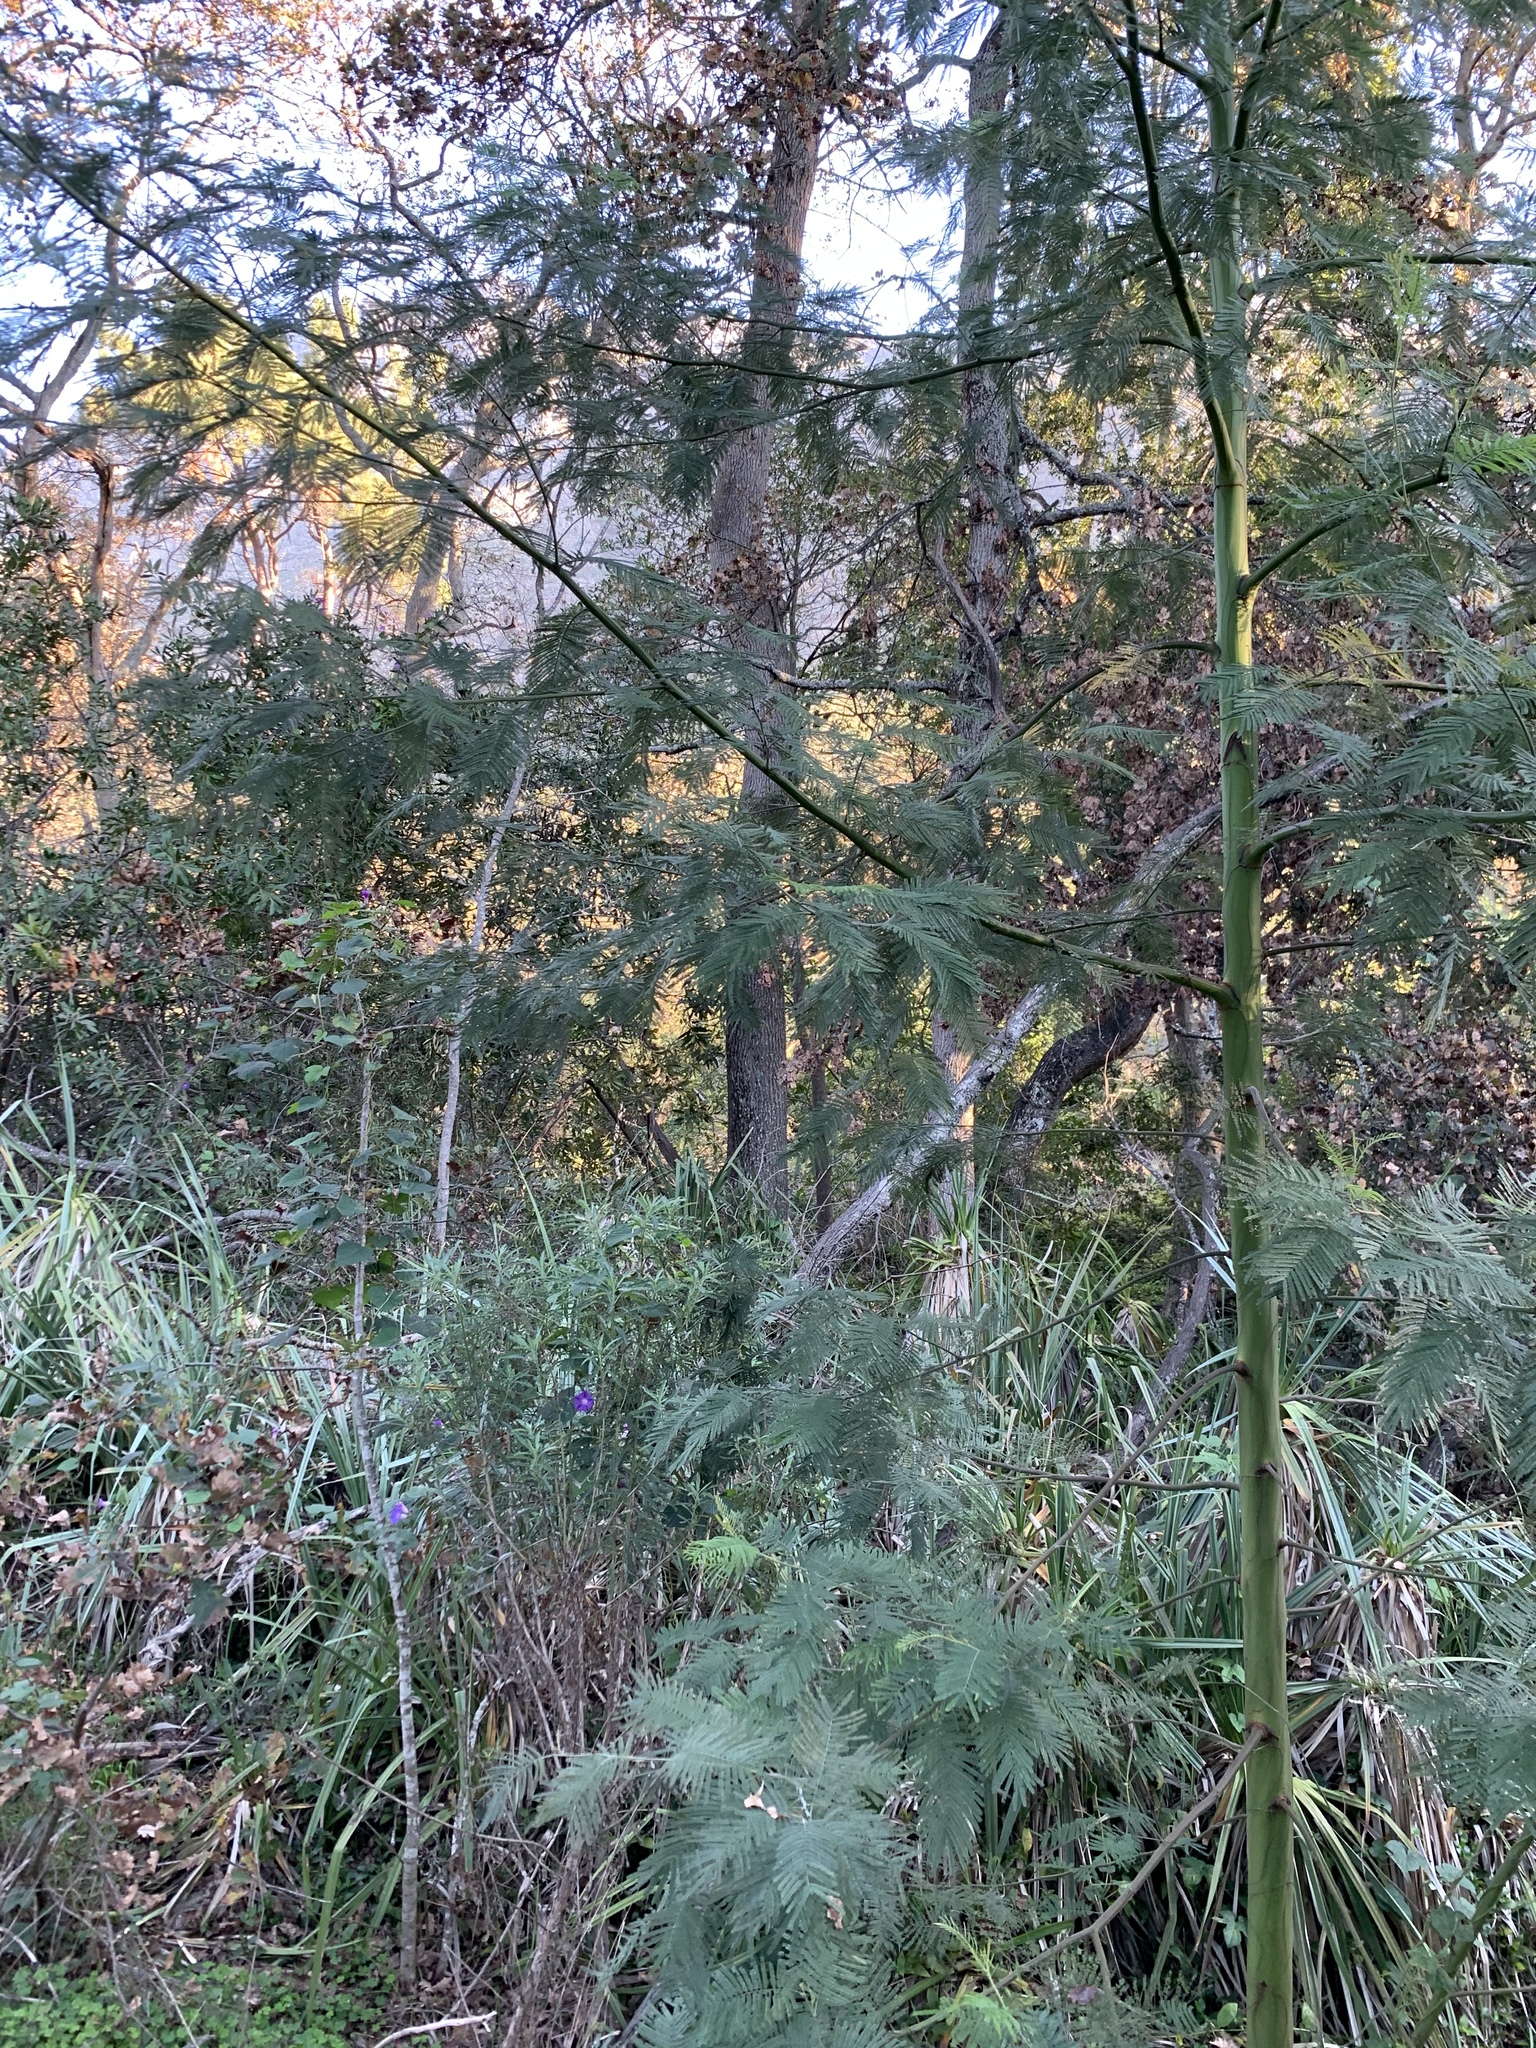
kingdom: Plantae
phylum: Tracheophyta
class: Magnoliopsida
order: Fabales
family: Fabaceae
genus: Acacia
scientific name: Acacia mearnsii
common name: Black wattle
